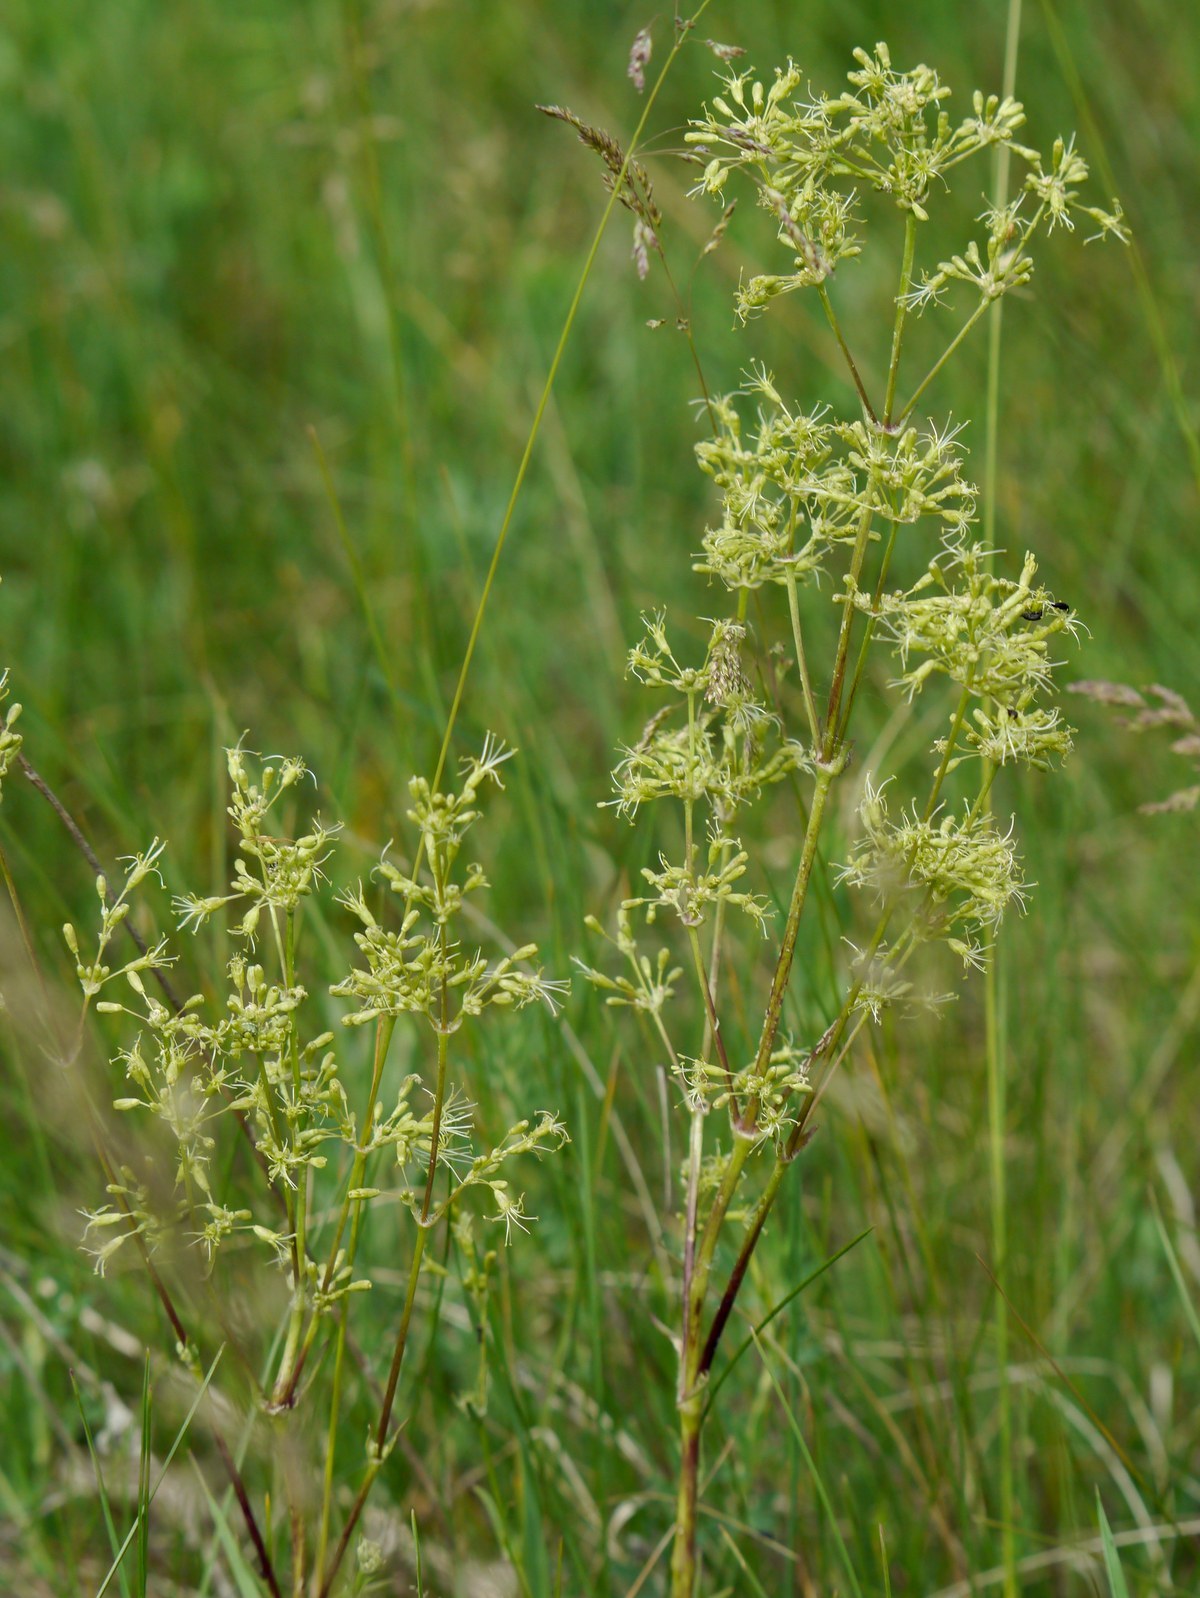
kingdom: Plantae
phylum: Tracheophyta
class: Magnoliopsida
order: Caryophyllales
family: Caryophyllaceae
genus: Silene
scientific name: Silene chersonensis
